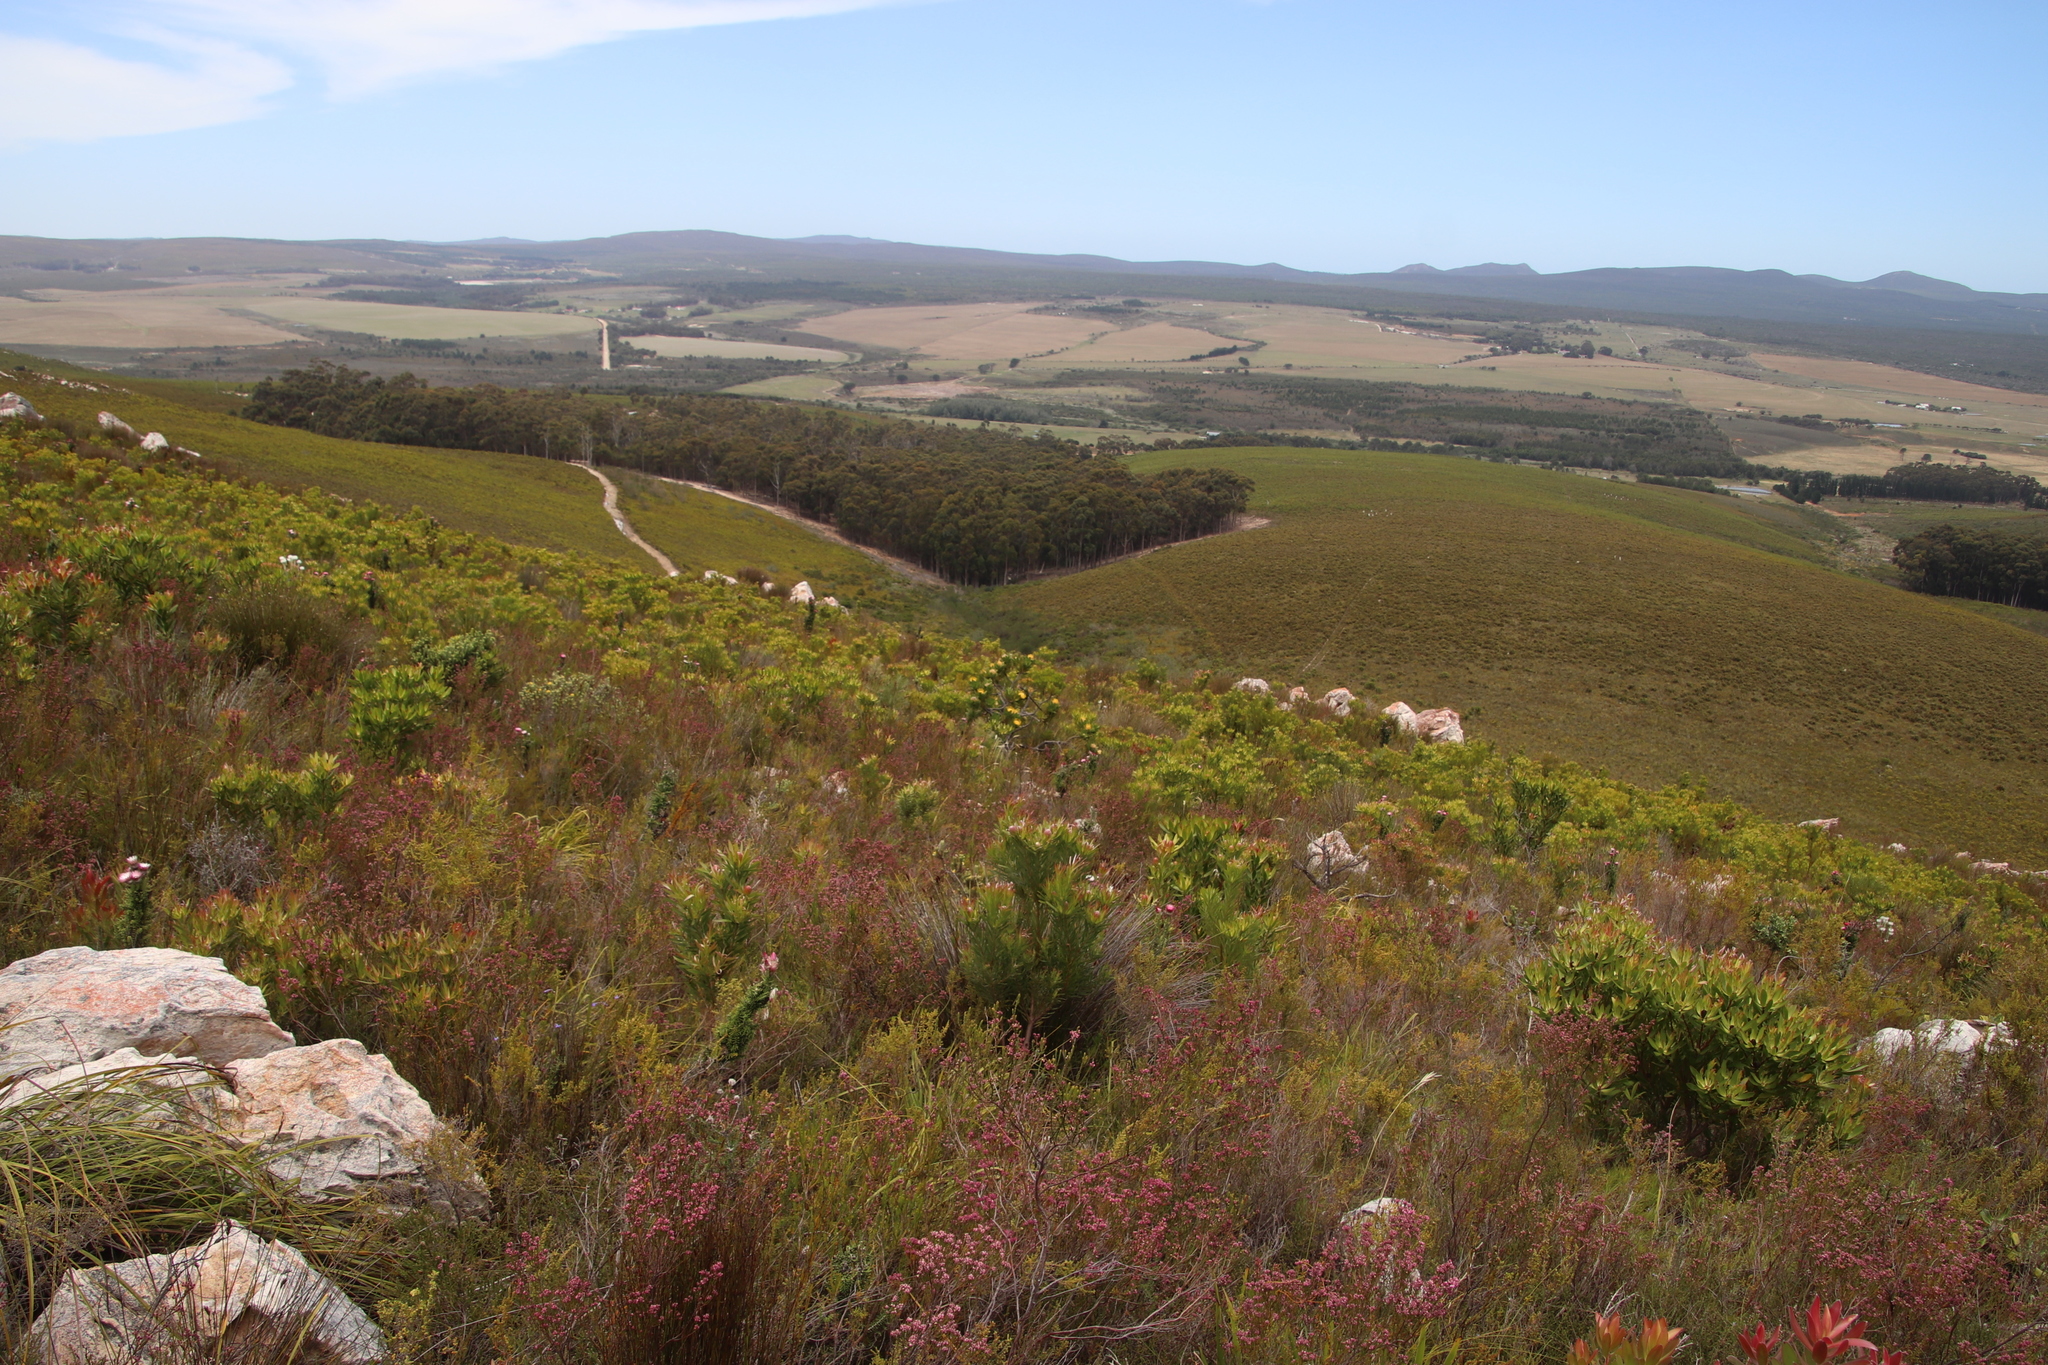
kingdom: Plantae
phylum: Tracheophyta
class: Magnoliopsida
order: Proteales
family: Proteaceae
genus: Leucospermum
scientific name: Leucospermum conocarpodendron
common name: Tree pincushion
